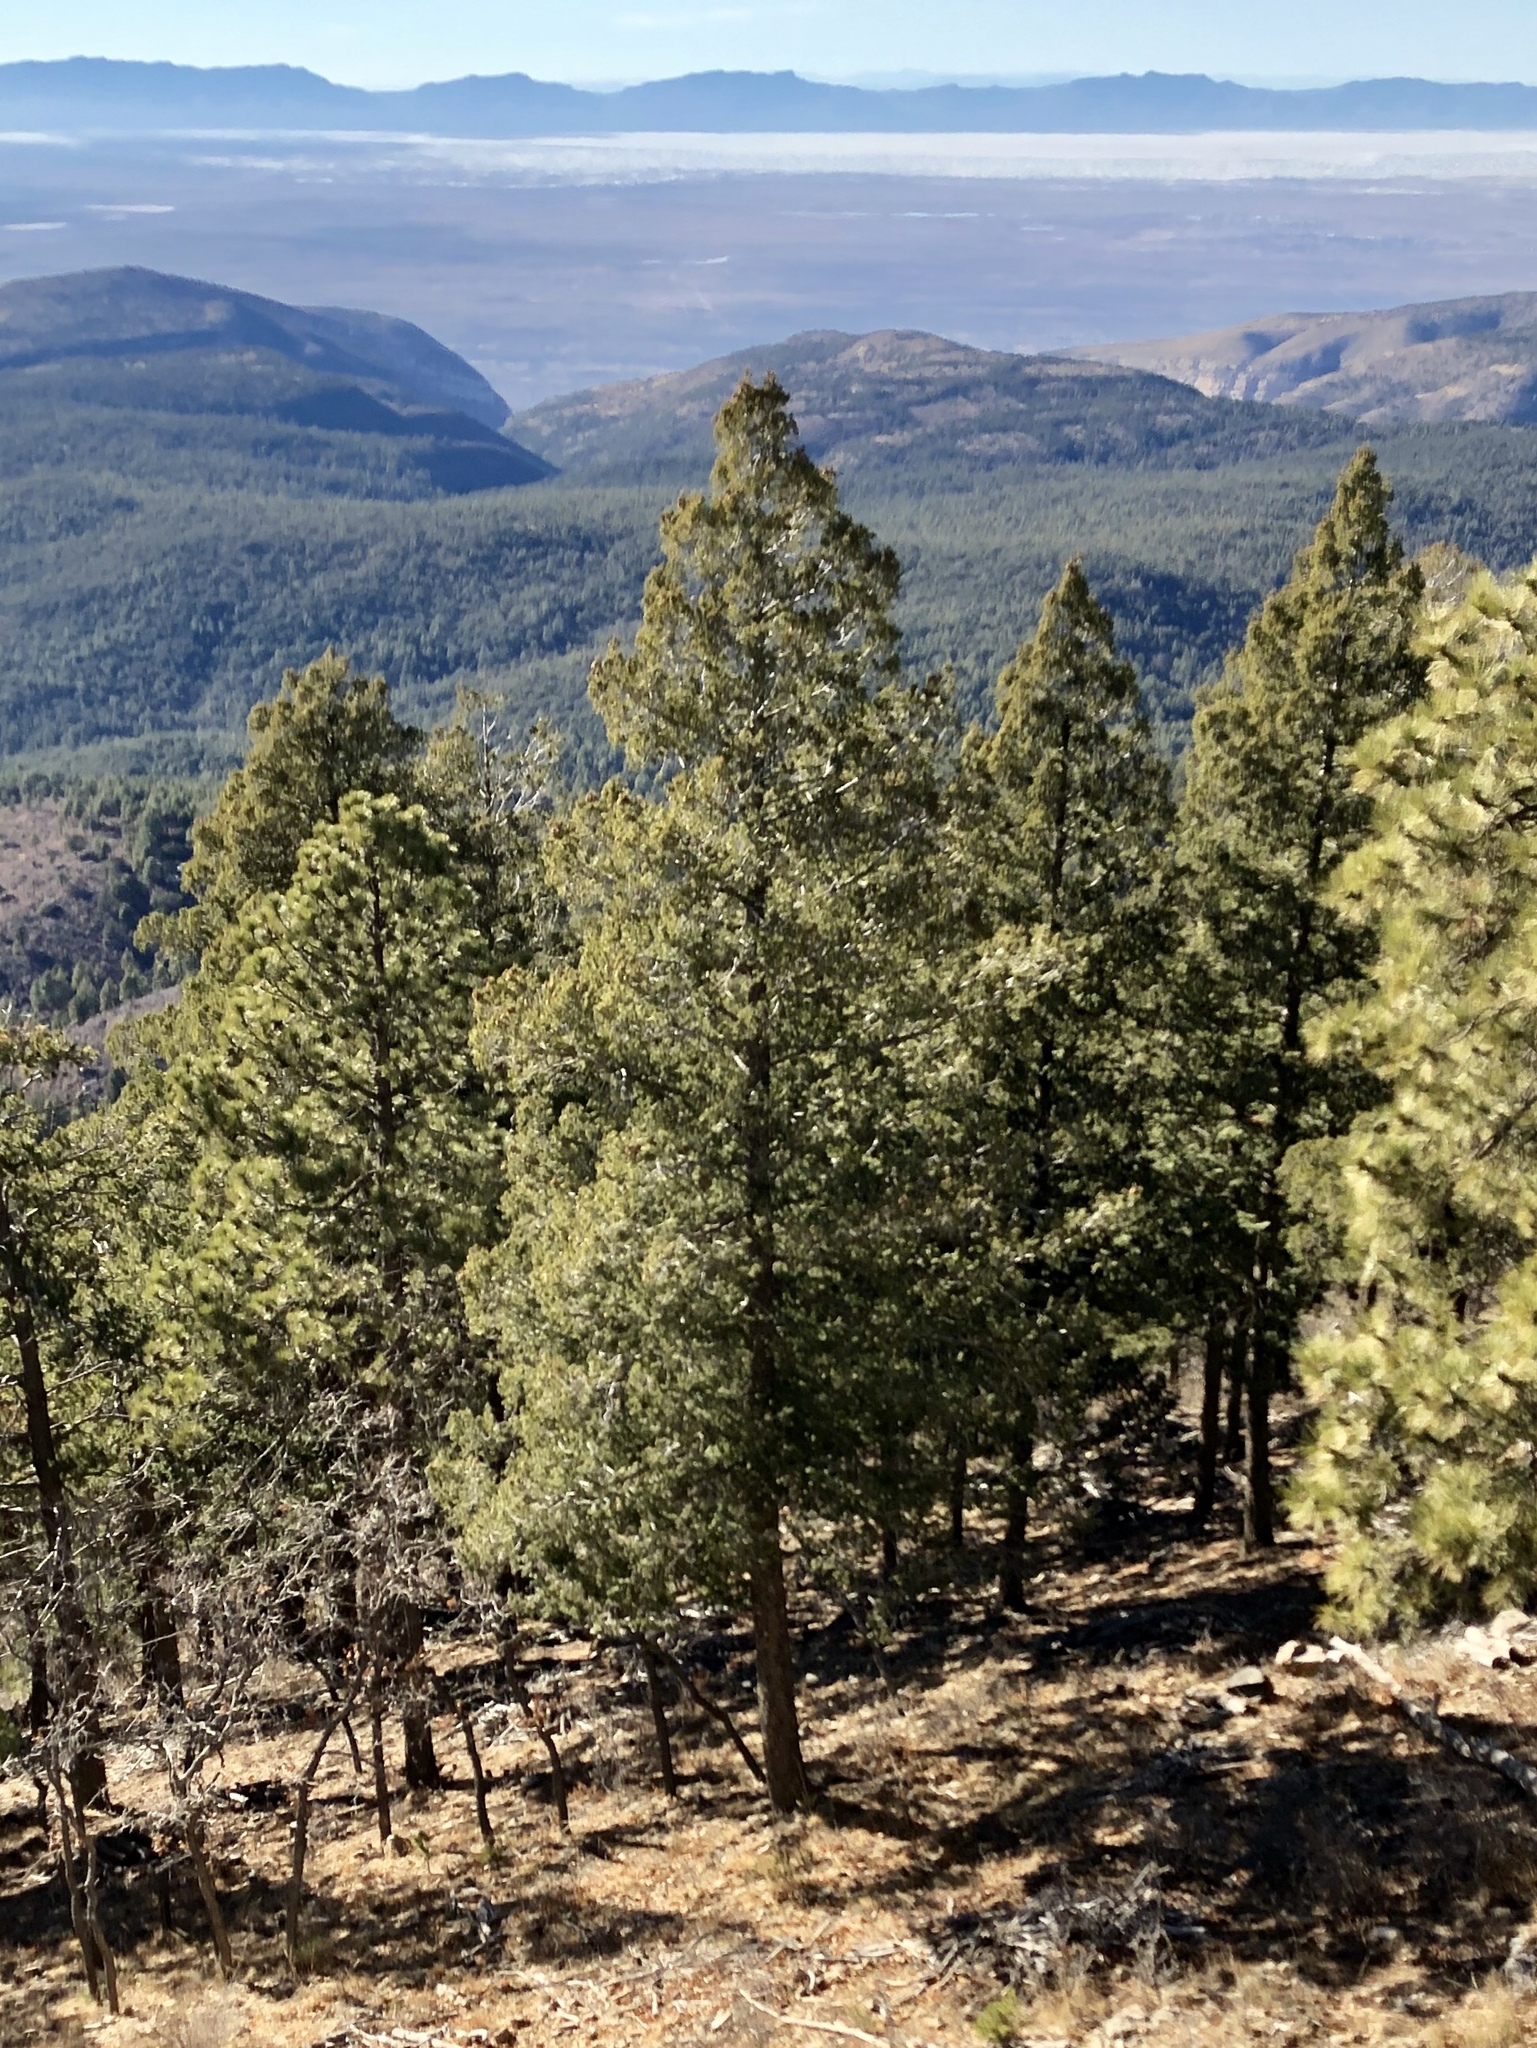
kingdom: Plantae
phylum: Tracheophyta
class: Pinopsida
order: Pinales
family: Pinaceae
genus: Pseudotsuga
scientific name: Pseudotsuga menziesii
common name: Douglas fir
